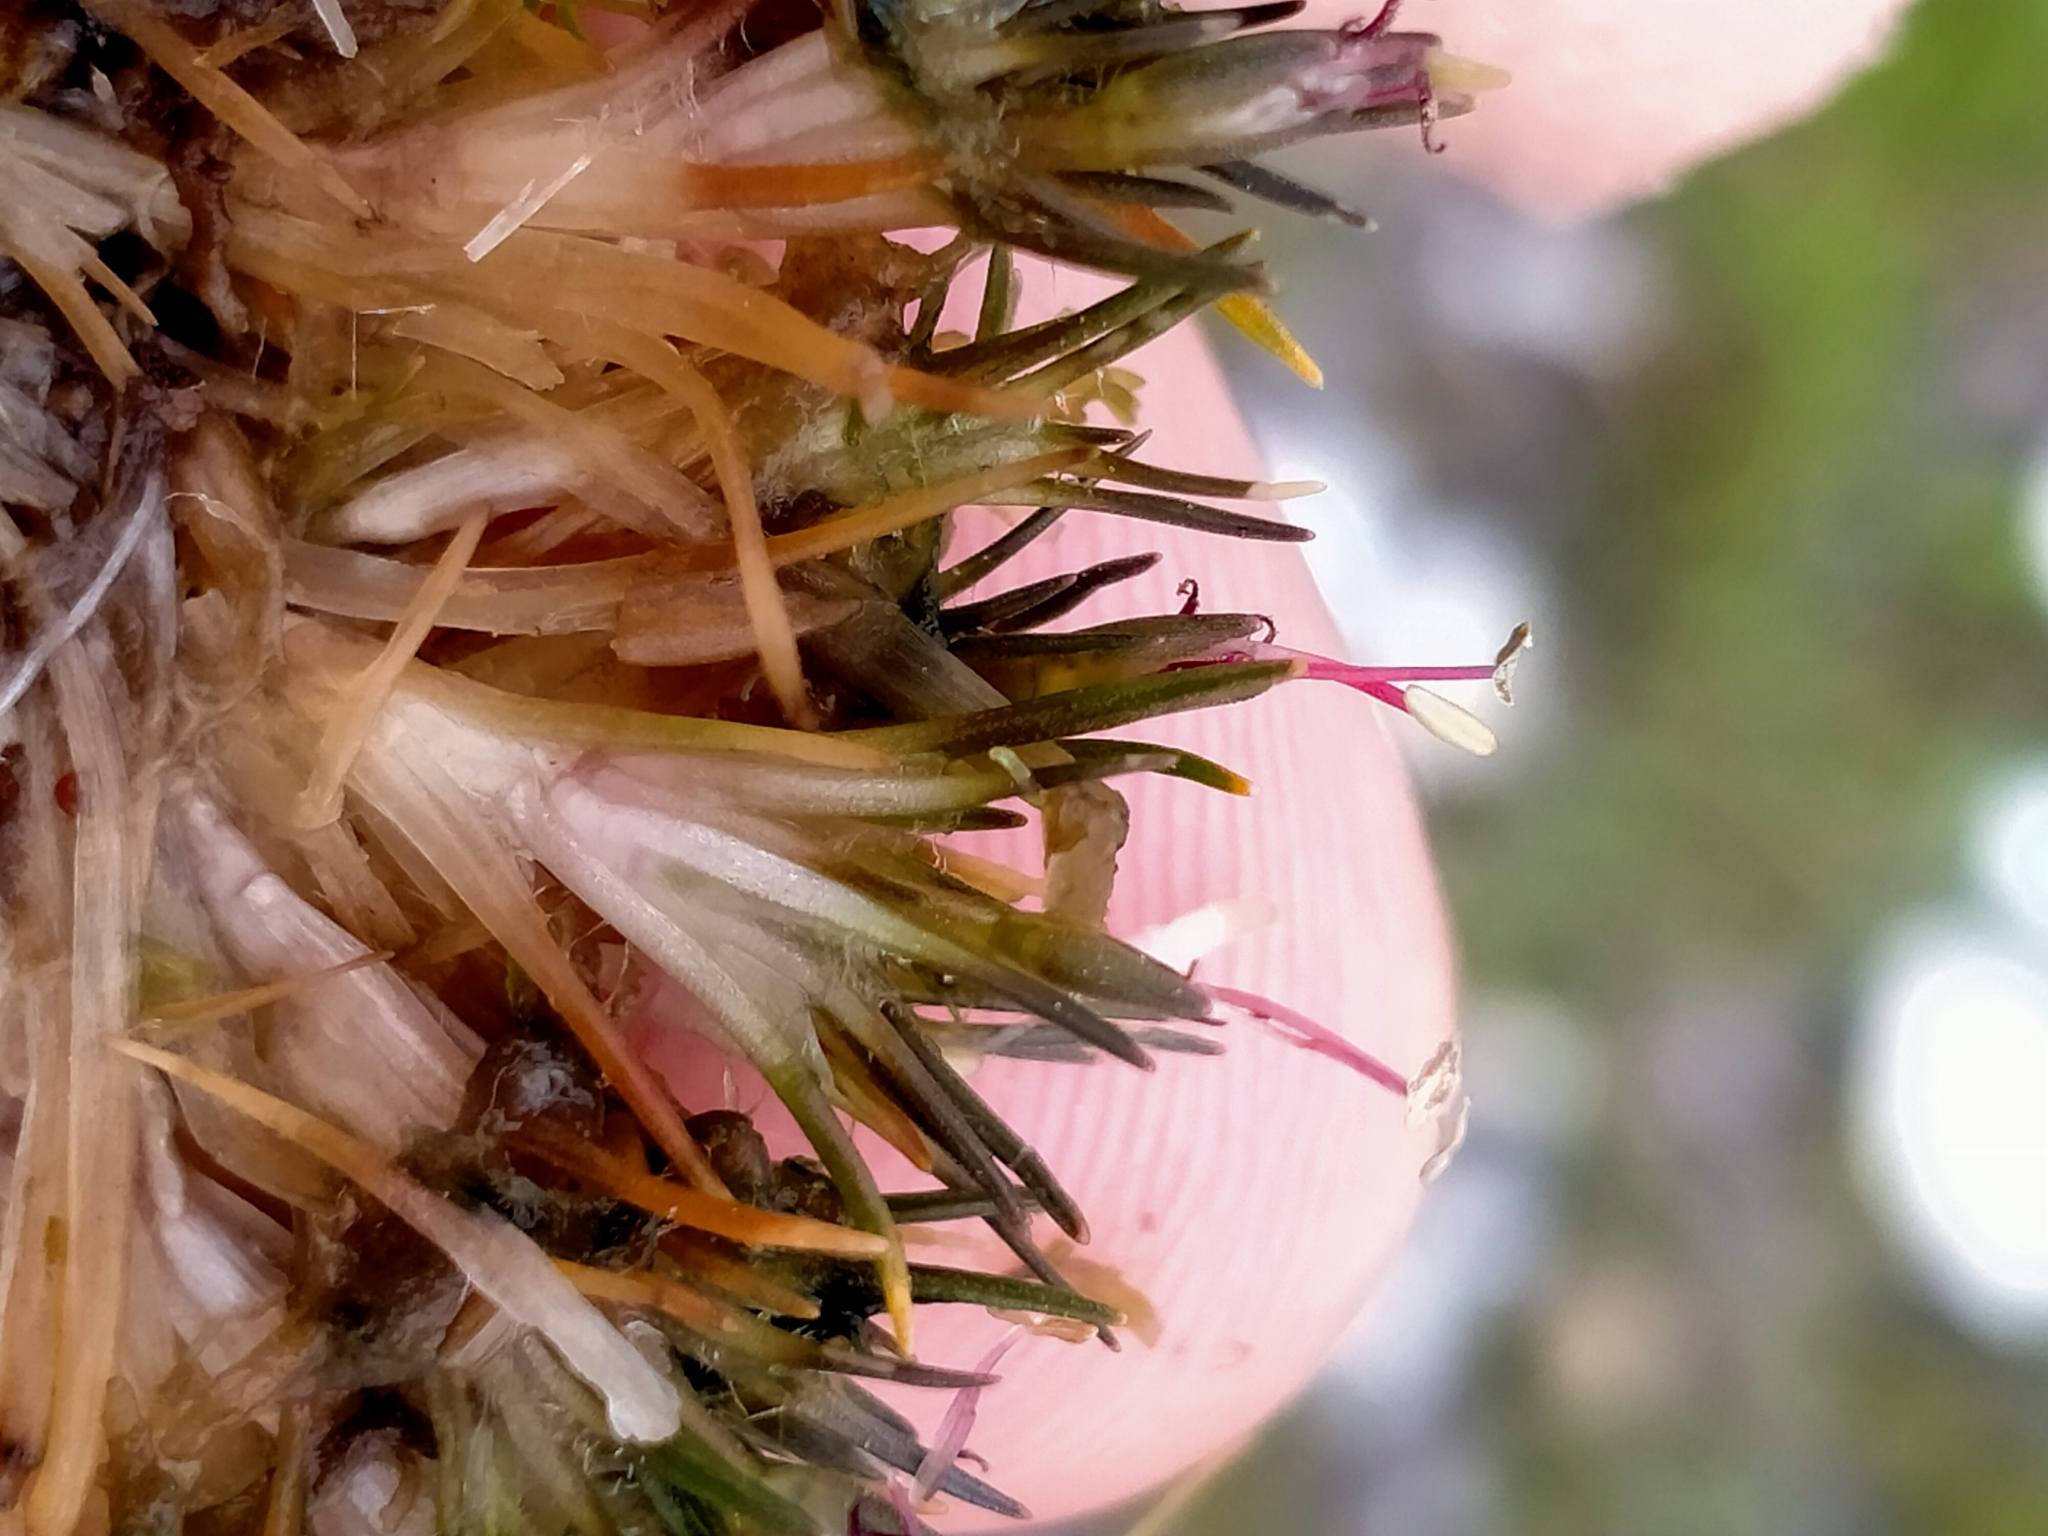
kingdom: Plantae
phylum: Tracheophyta
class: Liliopsida
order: Poales
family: Restionaceae
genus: Centrolepis
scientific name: Centrolepis ciliata
